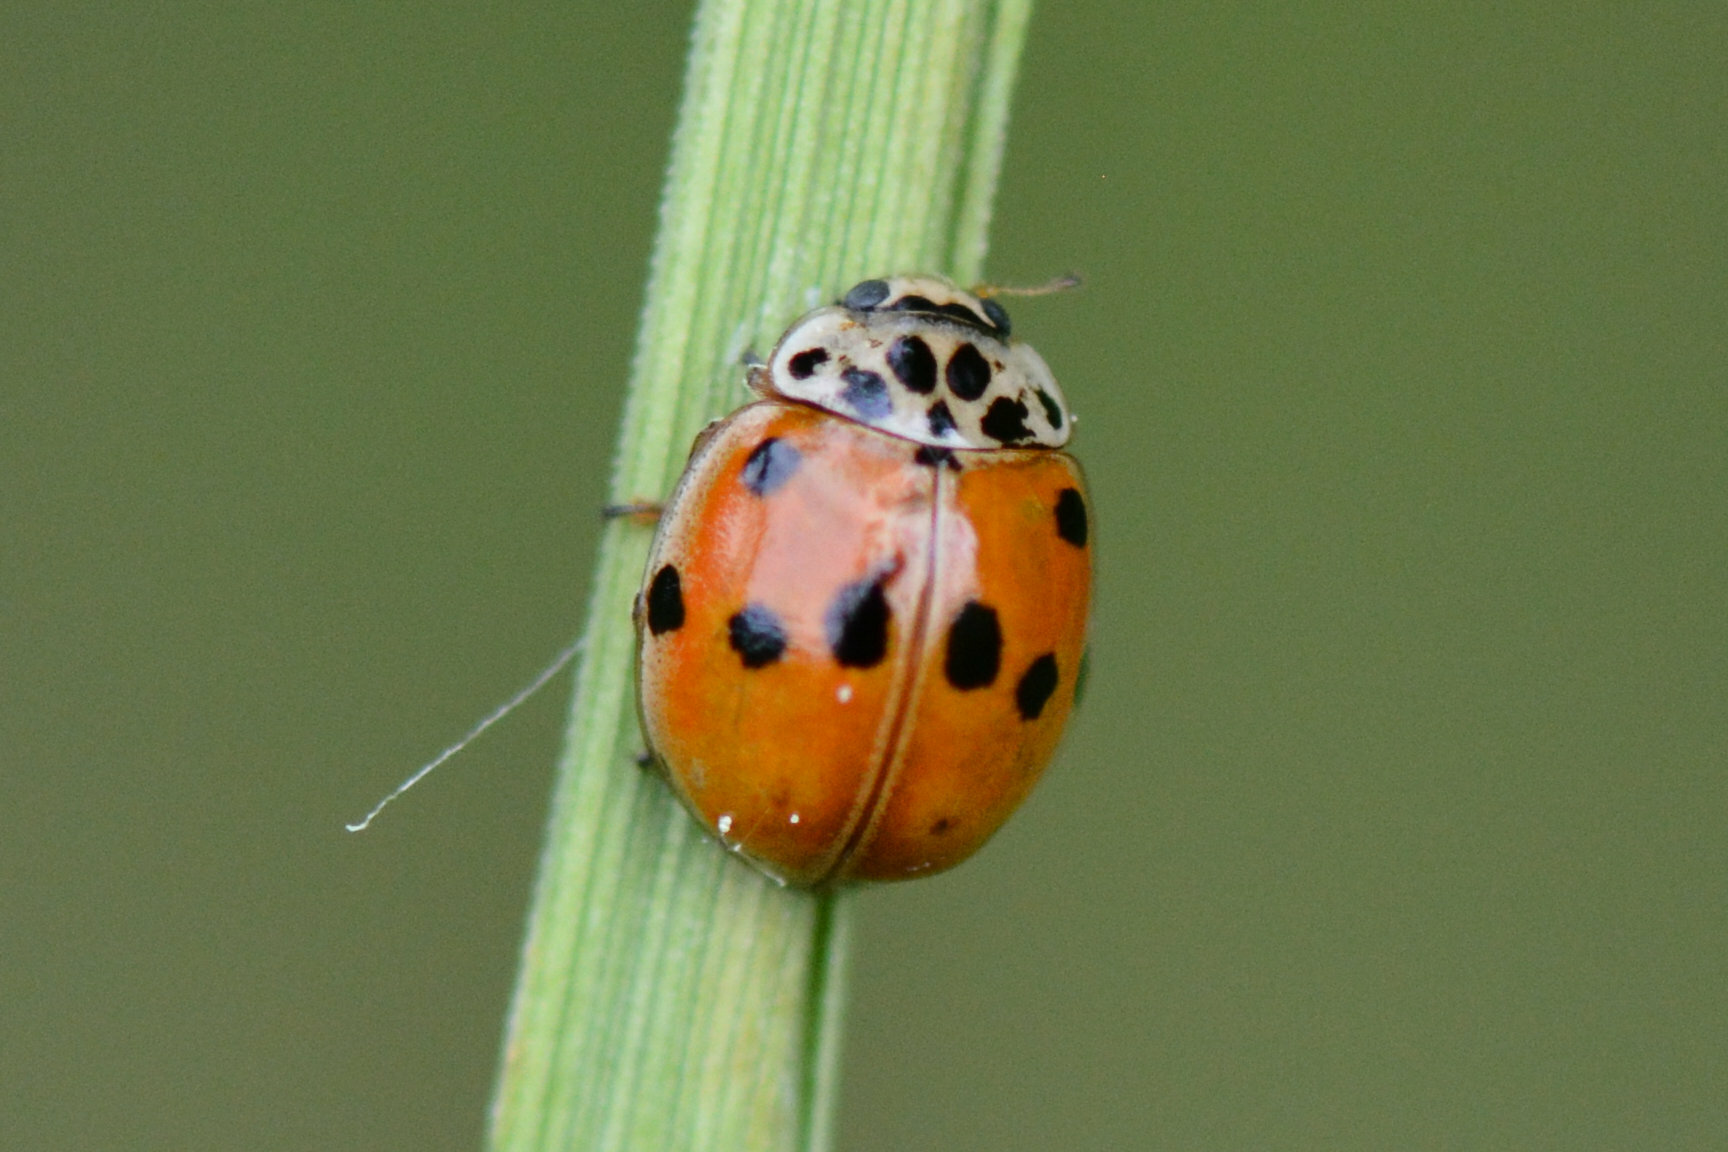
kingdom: Animalia
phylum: Arthropoda
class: Insecta
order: Coleoptera
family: Coccinellidae
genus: Adalia
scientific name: Adalia decempunctata
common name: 10-spot ladybird
